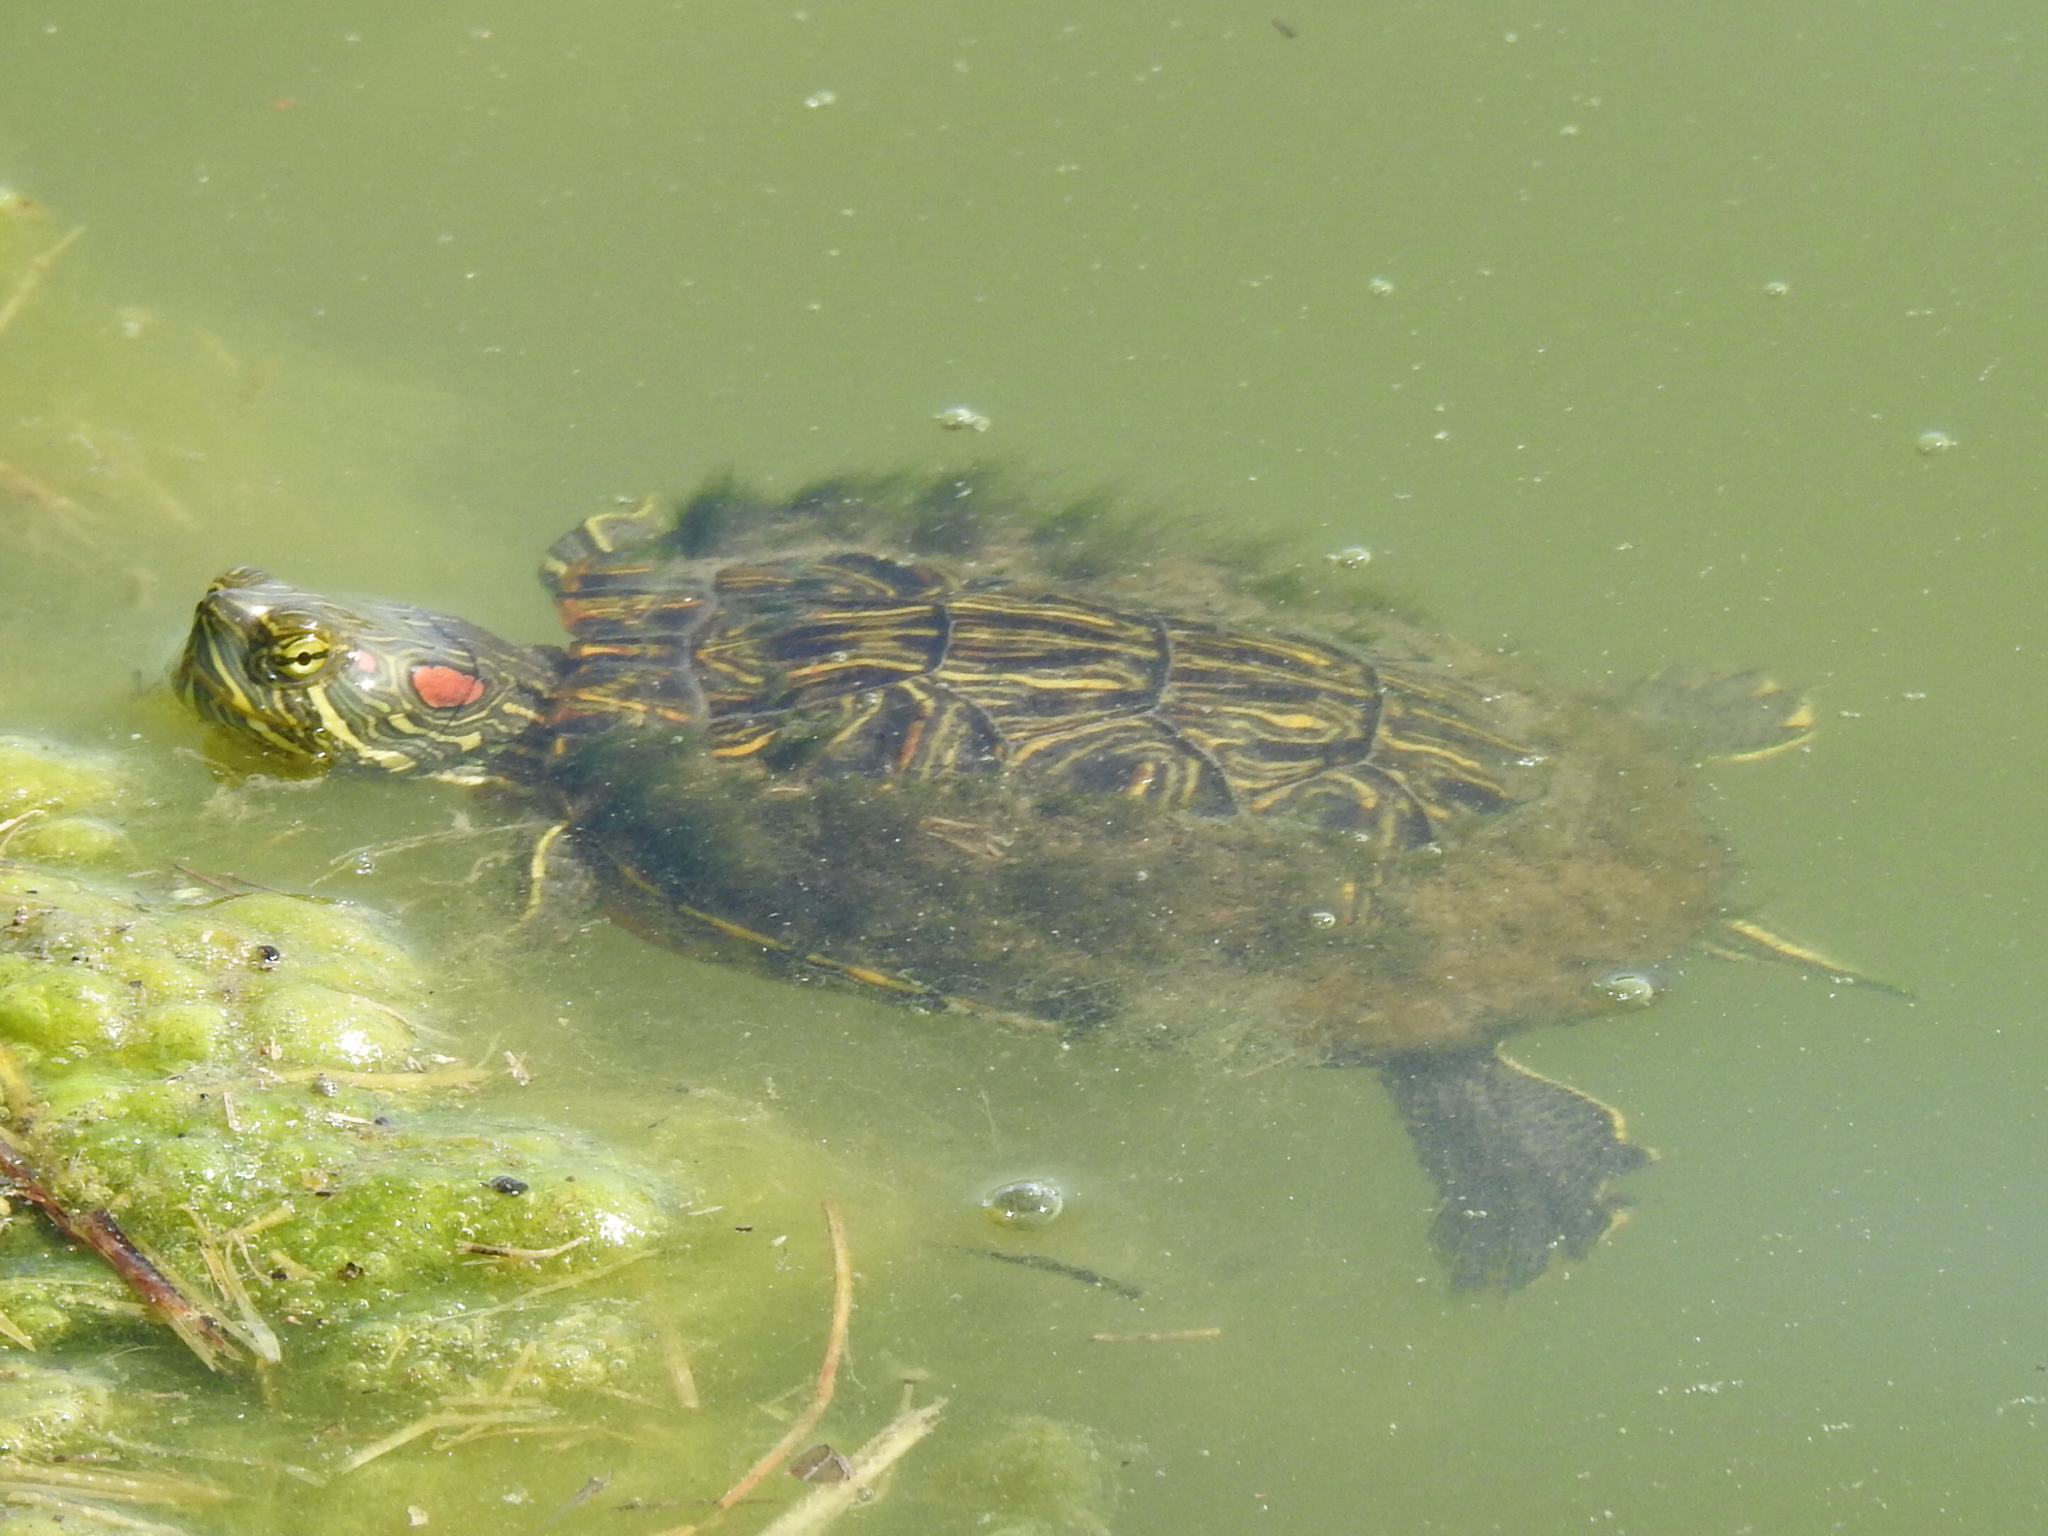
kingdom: Animalia
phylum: Chordata
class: Testudines
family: Emydidae
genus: Trachemys
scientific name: Trachemys scripta
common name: Slider
